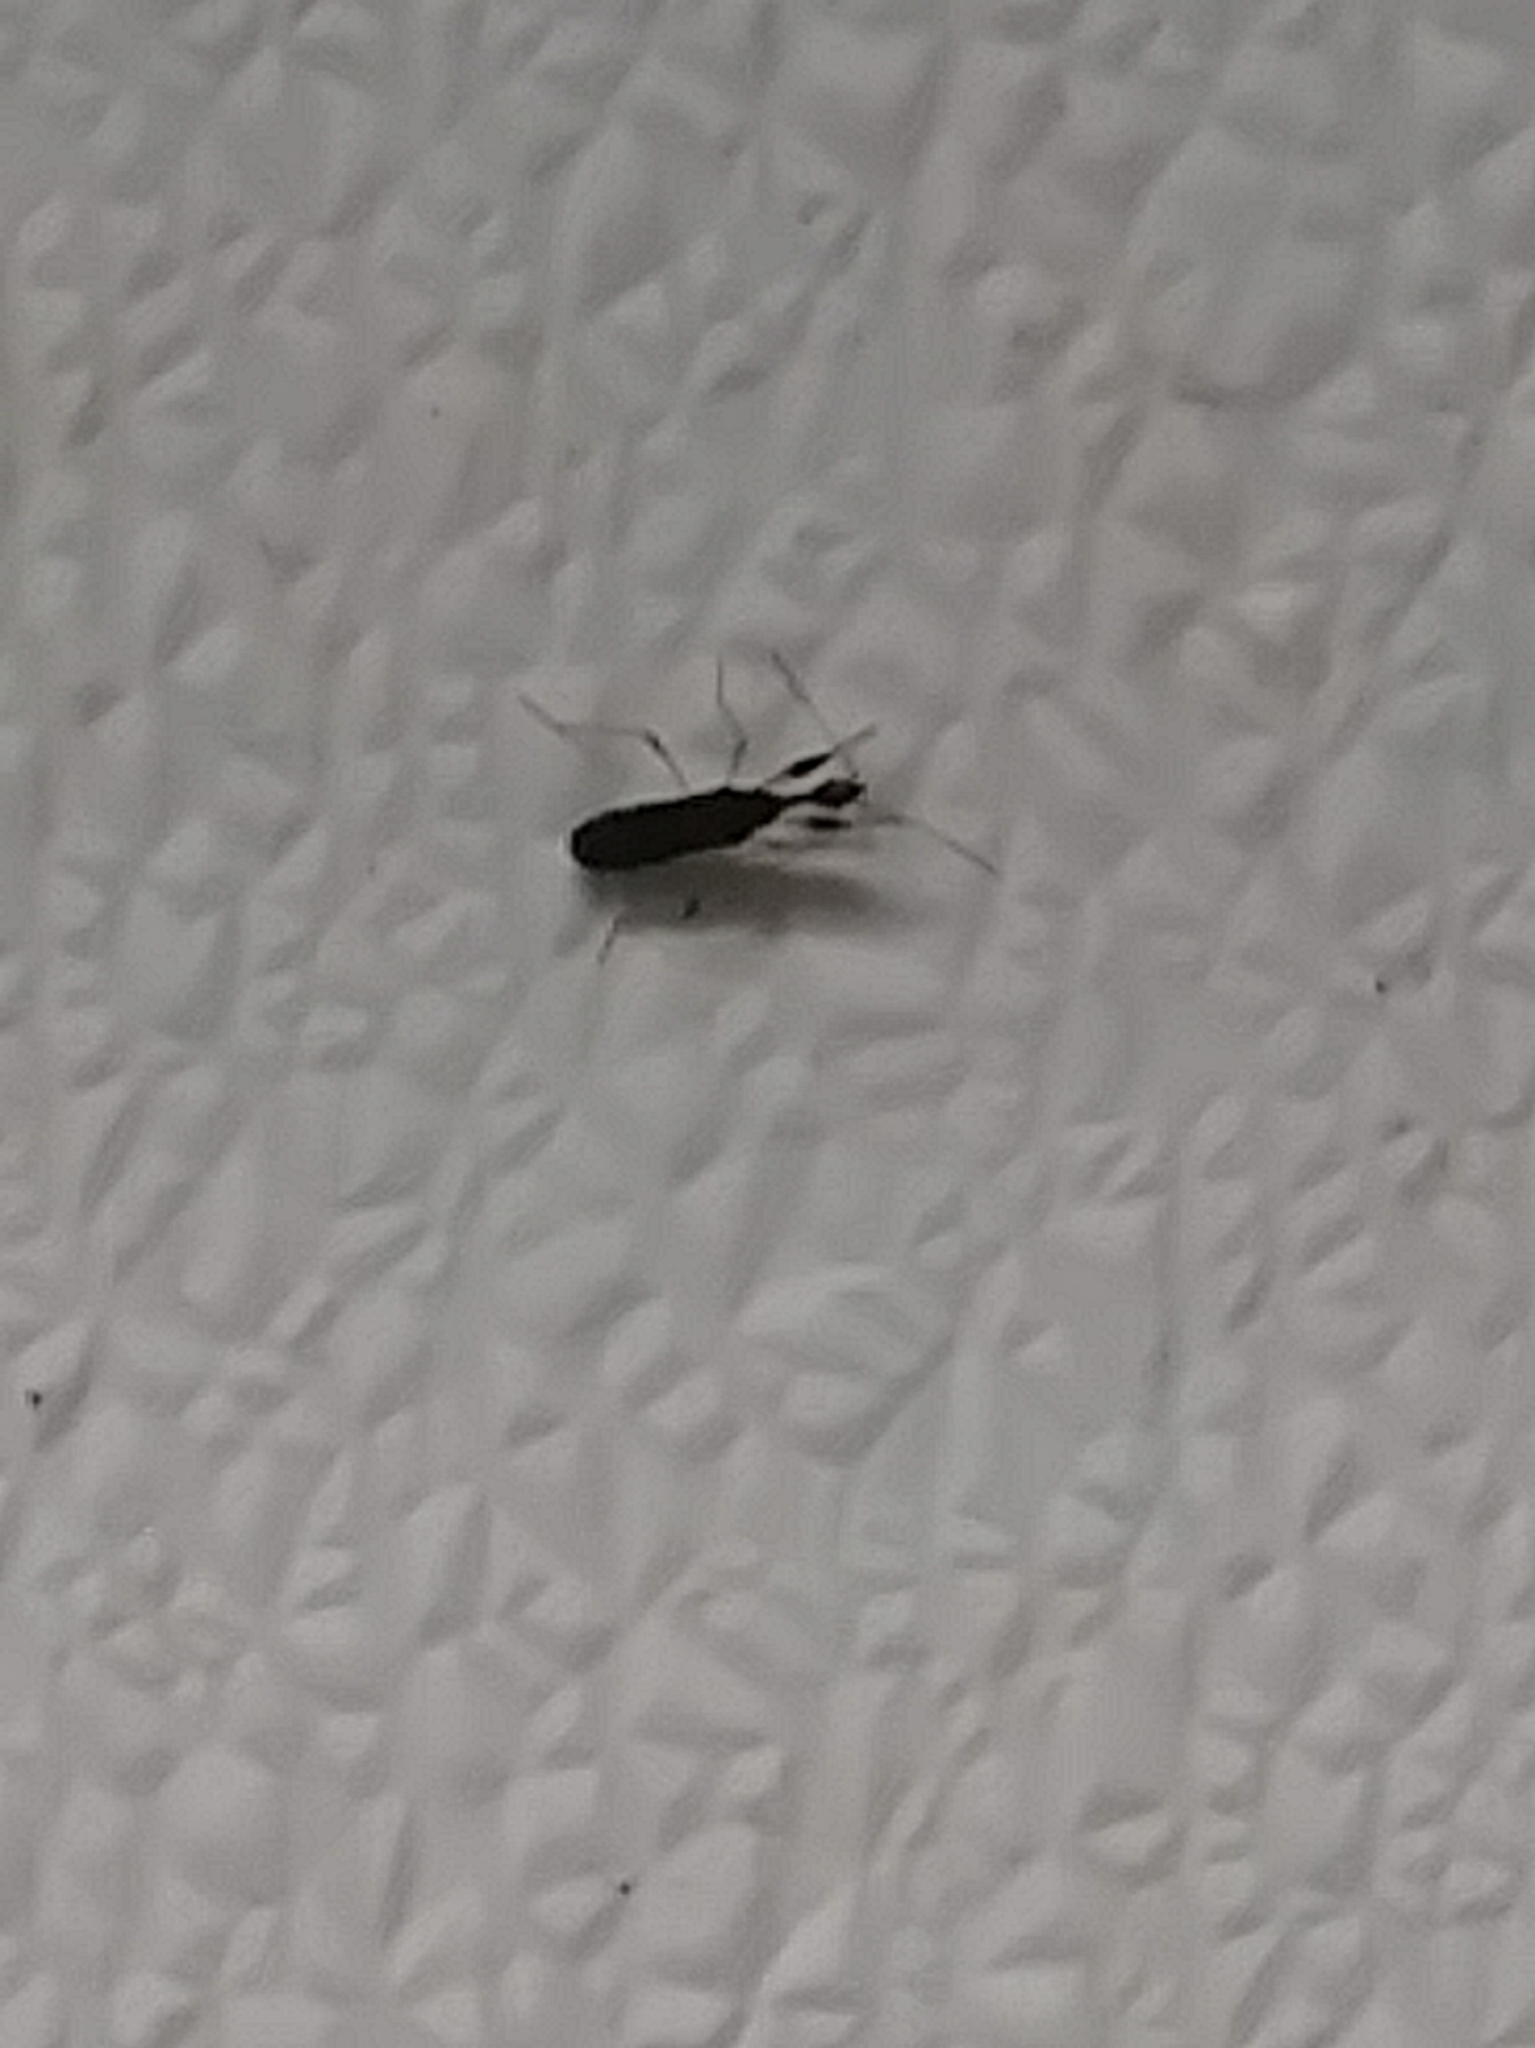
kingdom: Animalia
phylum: Arthropoda
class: Insecta
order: Hemiptera
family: Rhyparochromidae
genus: Myodocha
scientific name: Myodocha serripes
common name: Long-necked seed bug
